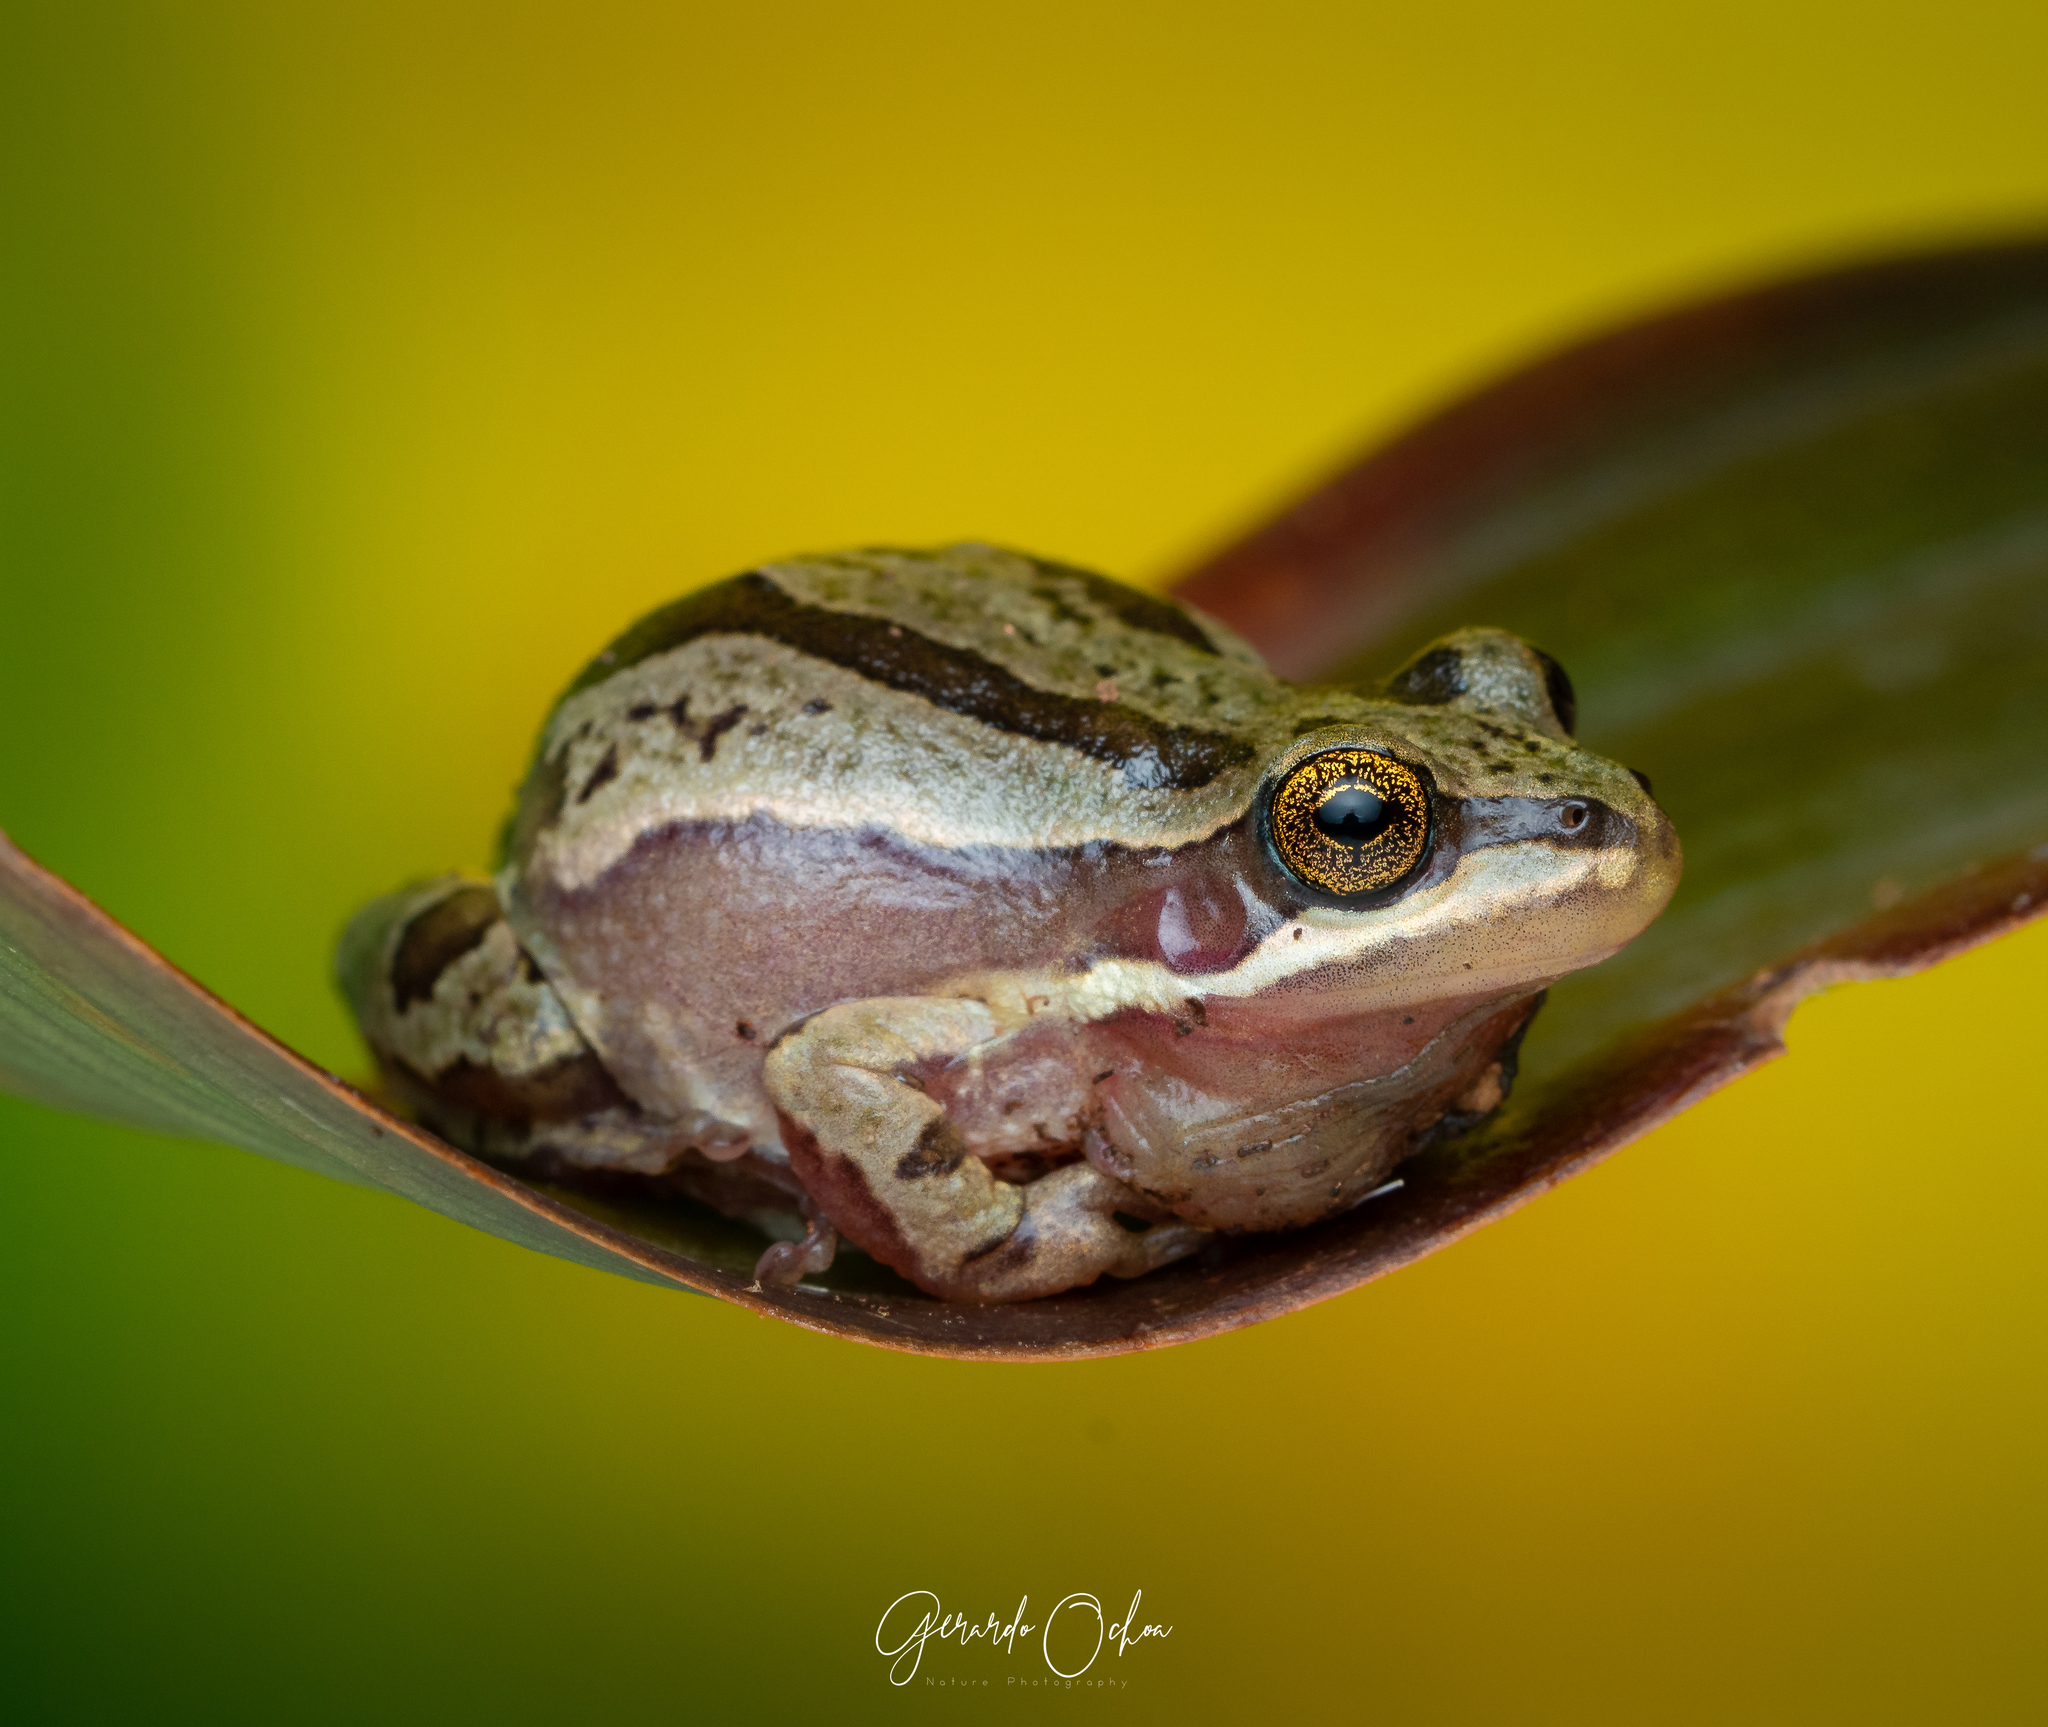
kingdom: Animalia
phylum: Chordata
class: Amphibia
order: Anura
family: Hylidae
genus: Dryophytes
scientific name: Dryophytes eximius
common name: Mountain treefrog
